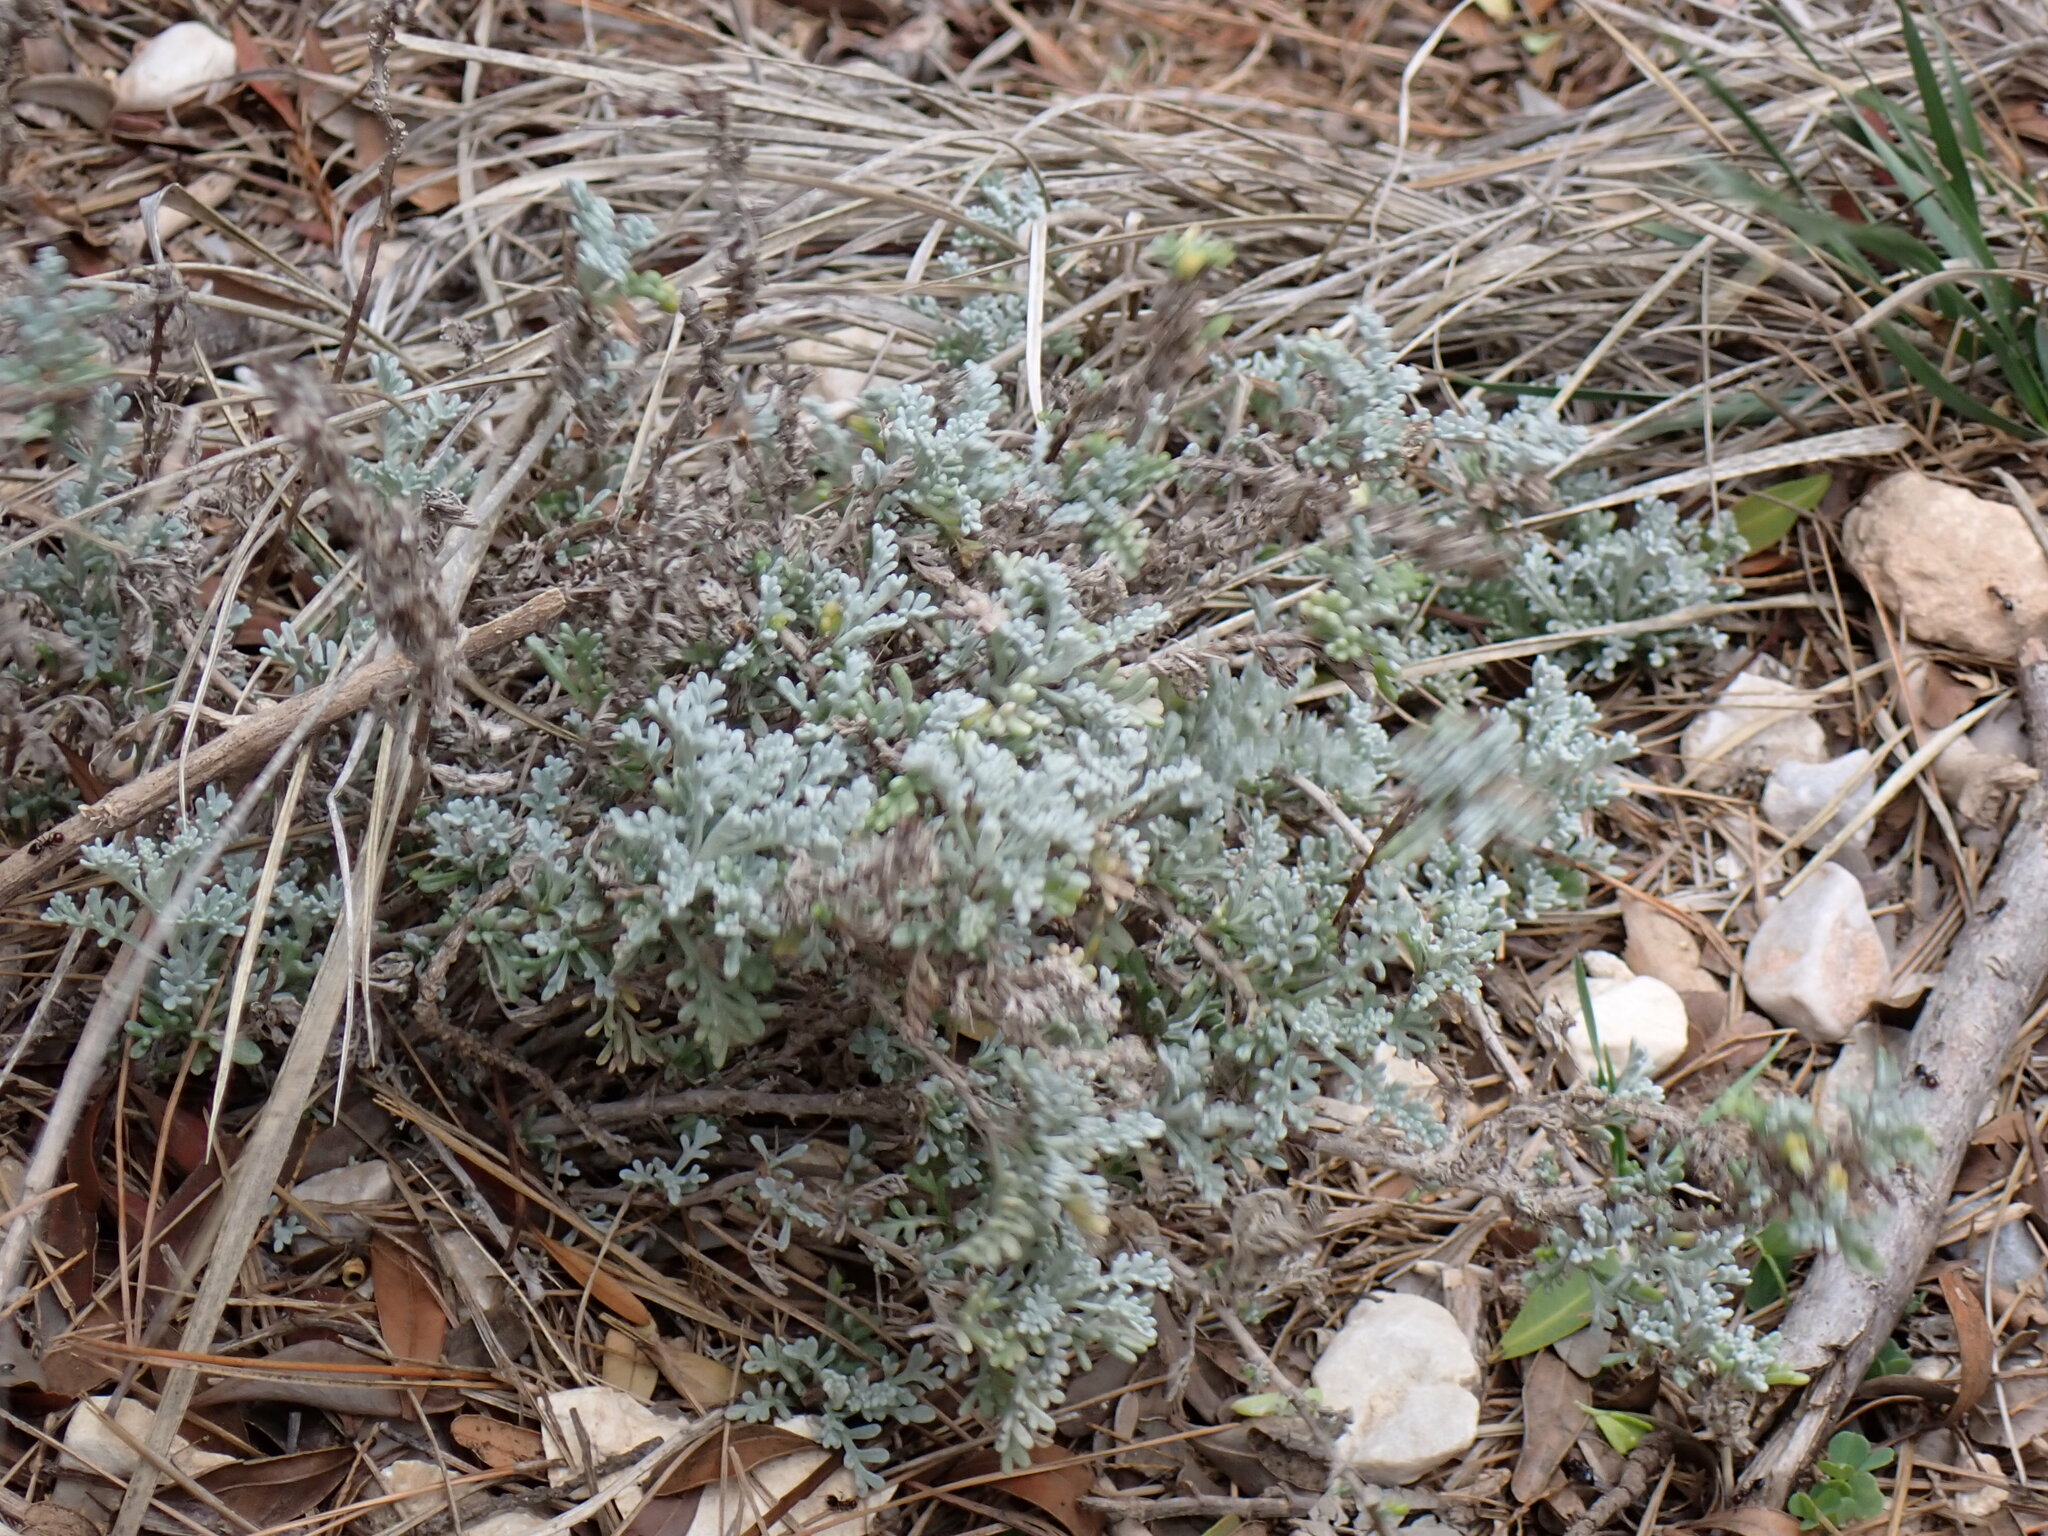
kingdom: Plantae
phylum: Tracheophyta
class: Magnoliopsida
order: Asterales
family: Asteraceae
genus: Artemisia
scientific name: Artemisia caerulescens
